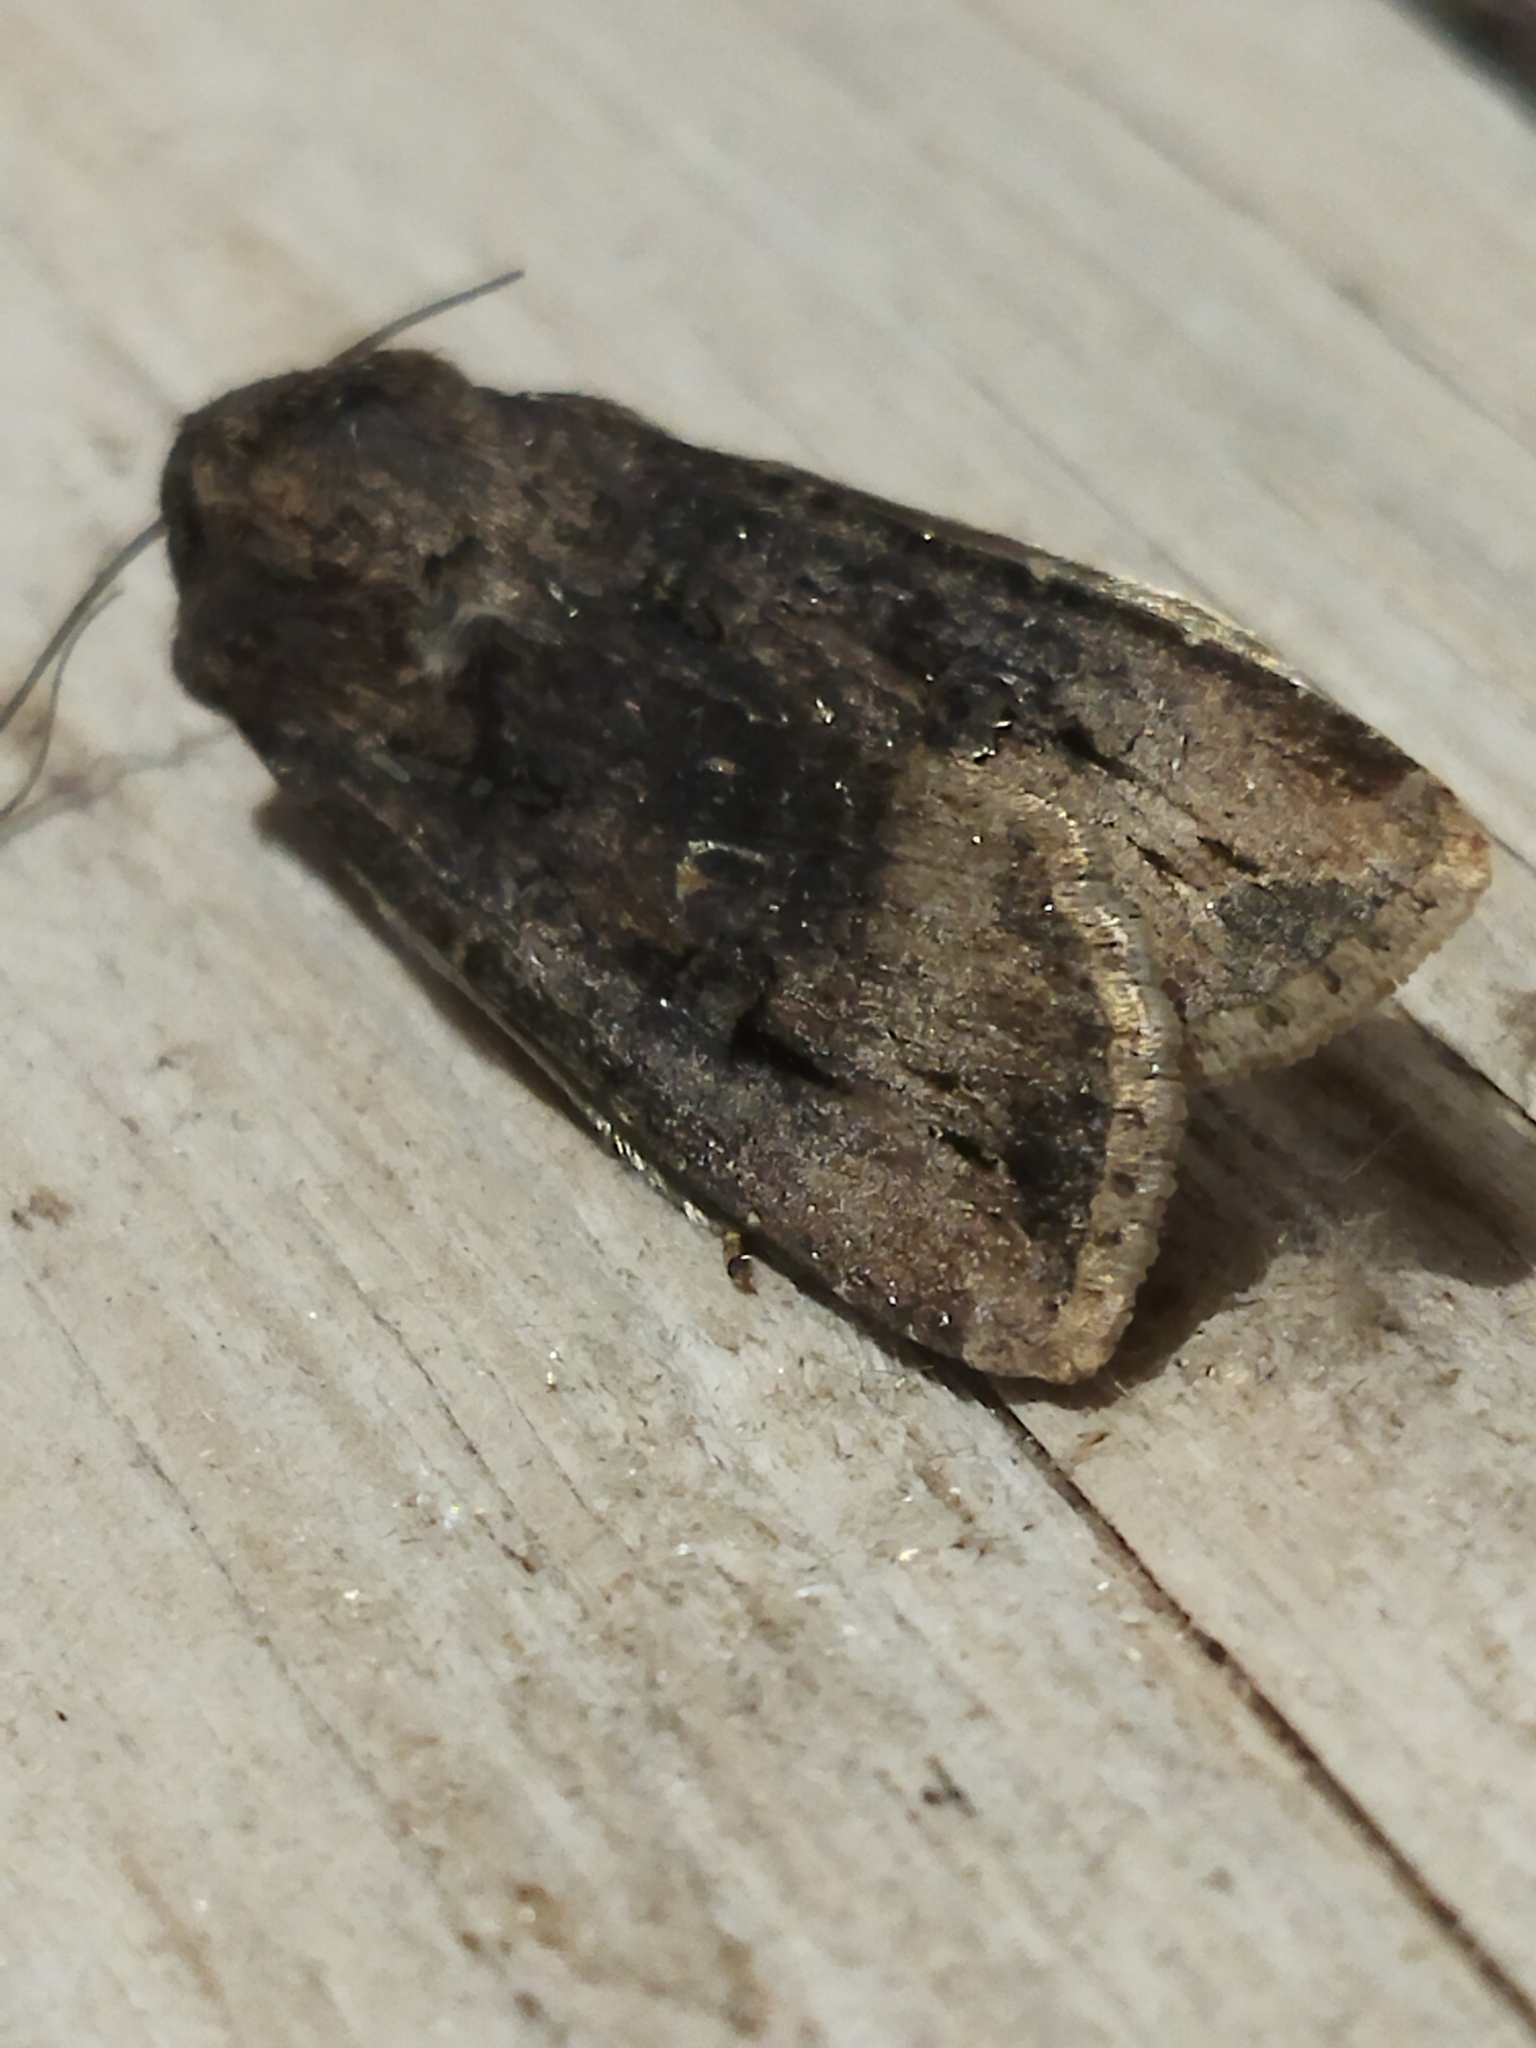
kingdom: Animalia
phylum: Arthropoda
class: Insecta
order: Lepidoptera
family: Noctuidae
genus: Agrotis
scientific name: Agrotis ipsilon
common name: Dark sword-grass
